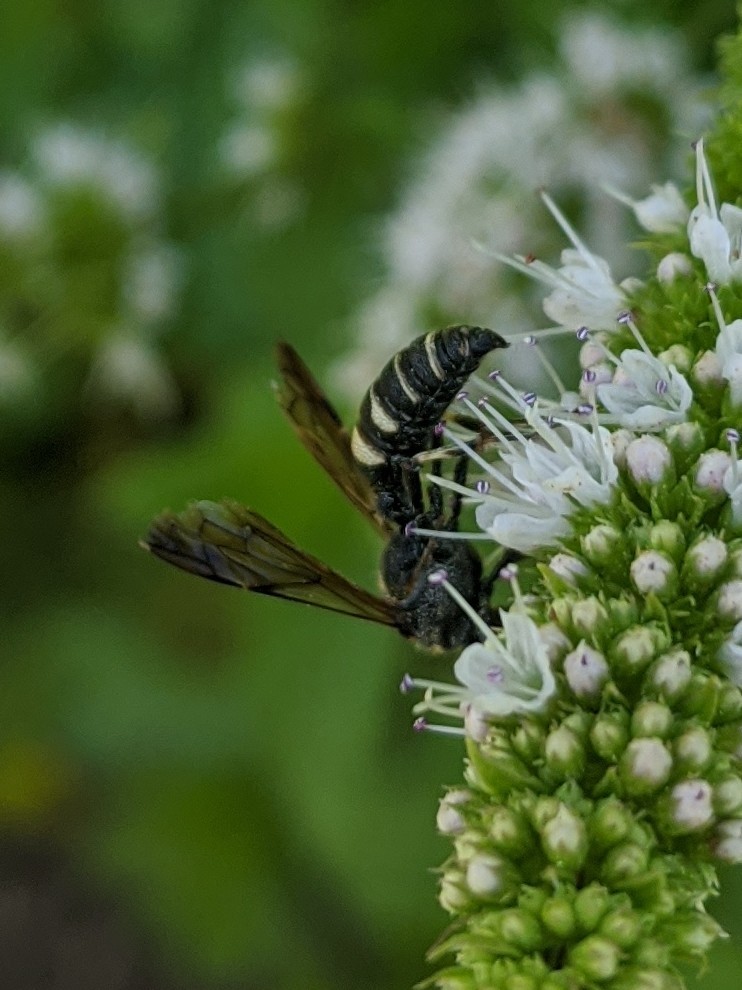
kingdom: Animalia
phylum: Arthropoda
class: Insecta
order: Hymenoptera
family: Crabronidae
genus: Cerceris
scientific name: Cerceris fumipennis
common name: Smokey-winged beetle bandit wasp
